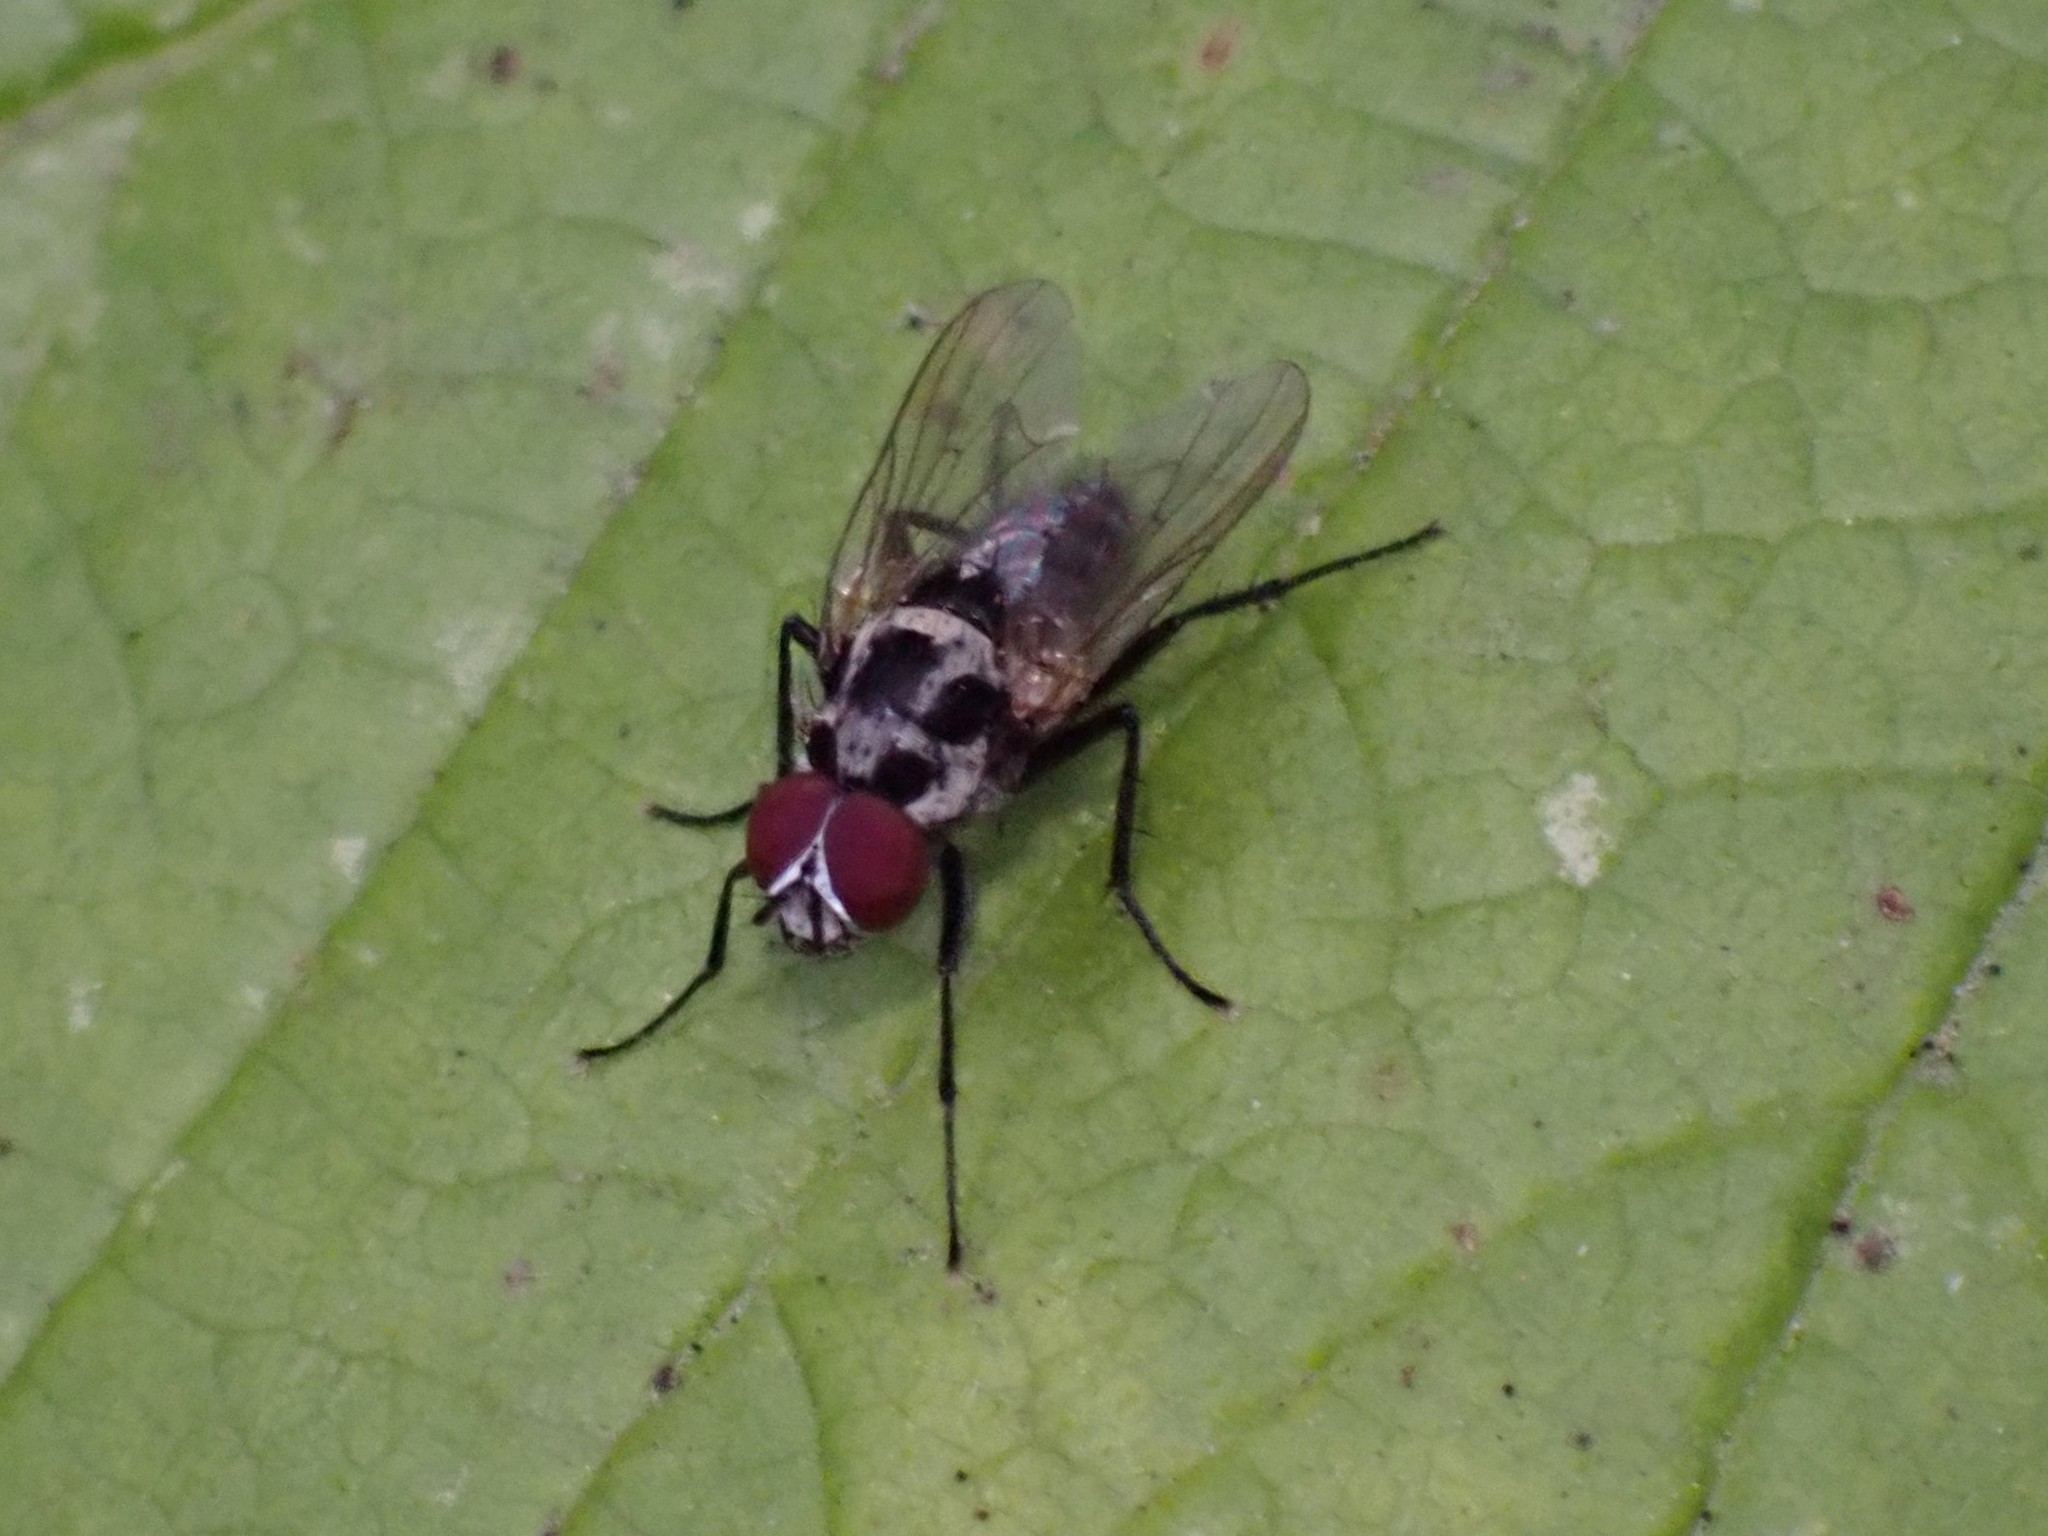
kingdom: Animalia
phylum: Arthropoda
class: Insecta
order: Diptera
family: Anthomyiidae
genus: Anthomyia
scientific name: Anthomyia procellaris
